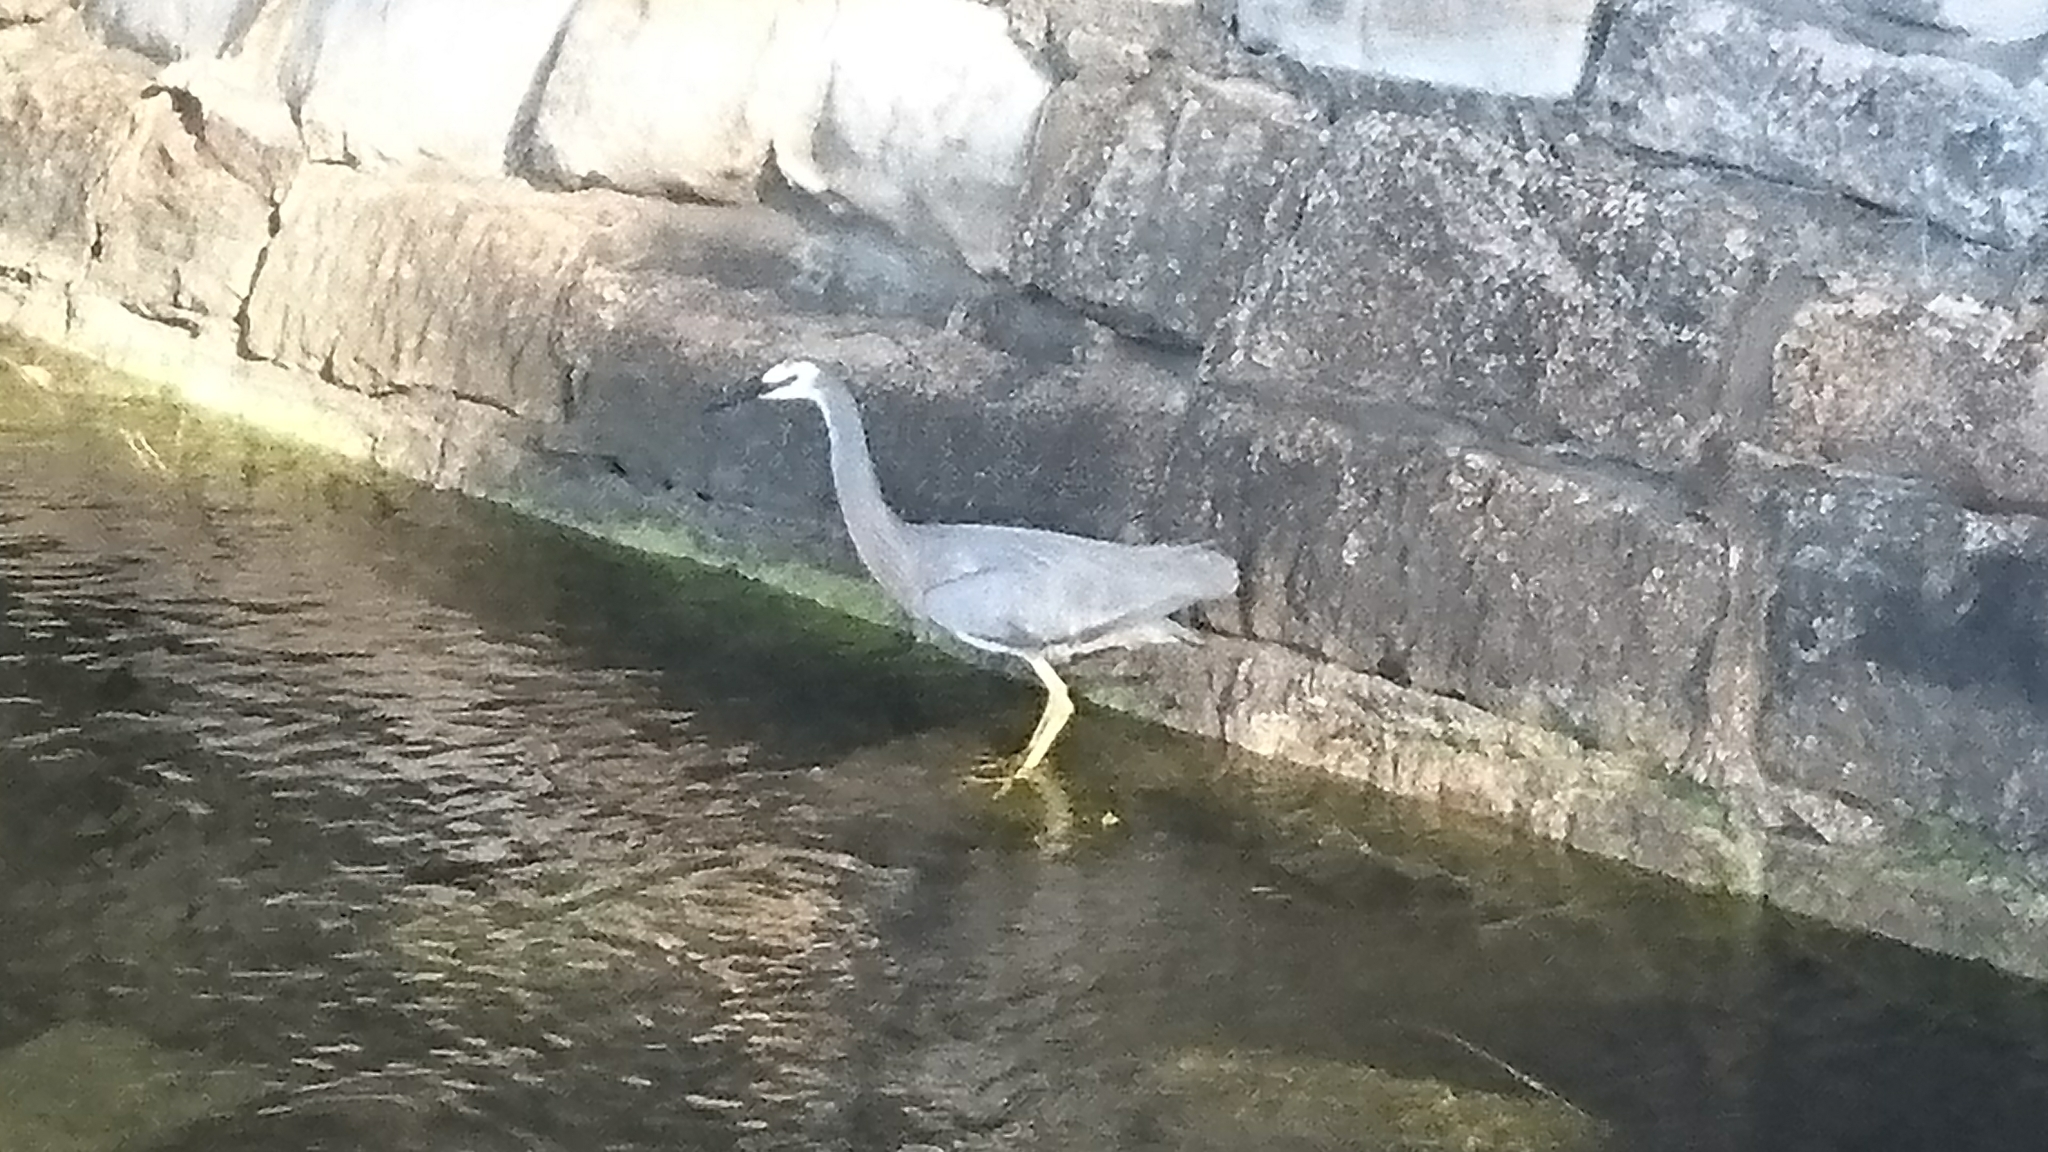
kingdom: Animalia
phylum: Chordata
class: Aves
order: Pelecaniformes
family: Ardeidae
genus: Egretta
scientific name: Egretta novaehollandiae
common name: White-faced heron
